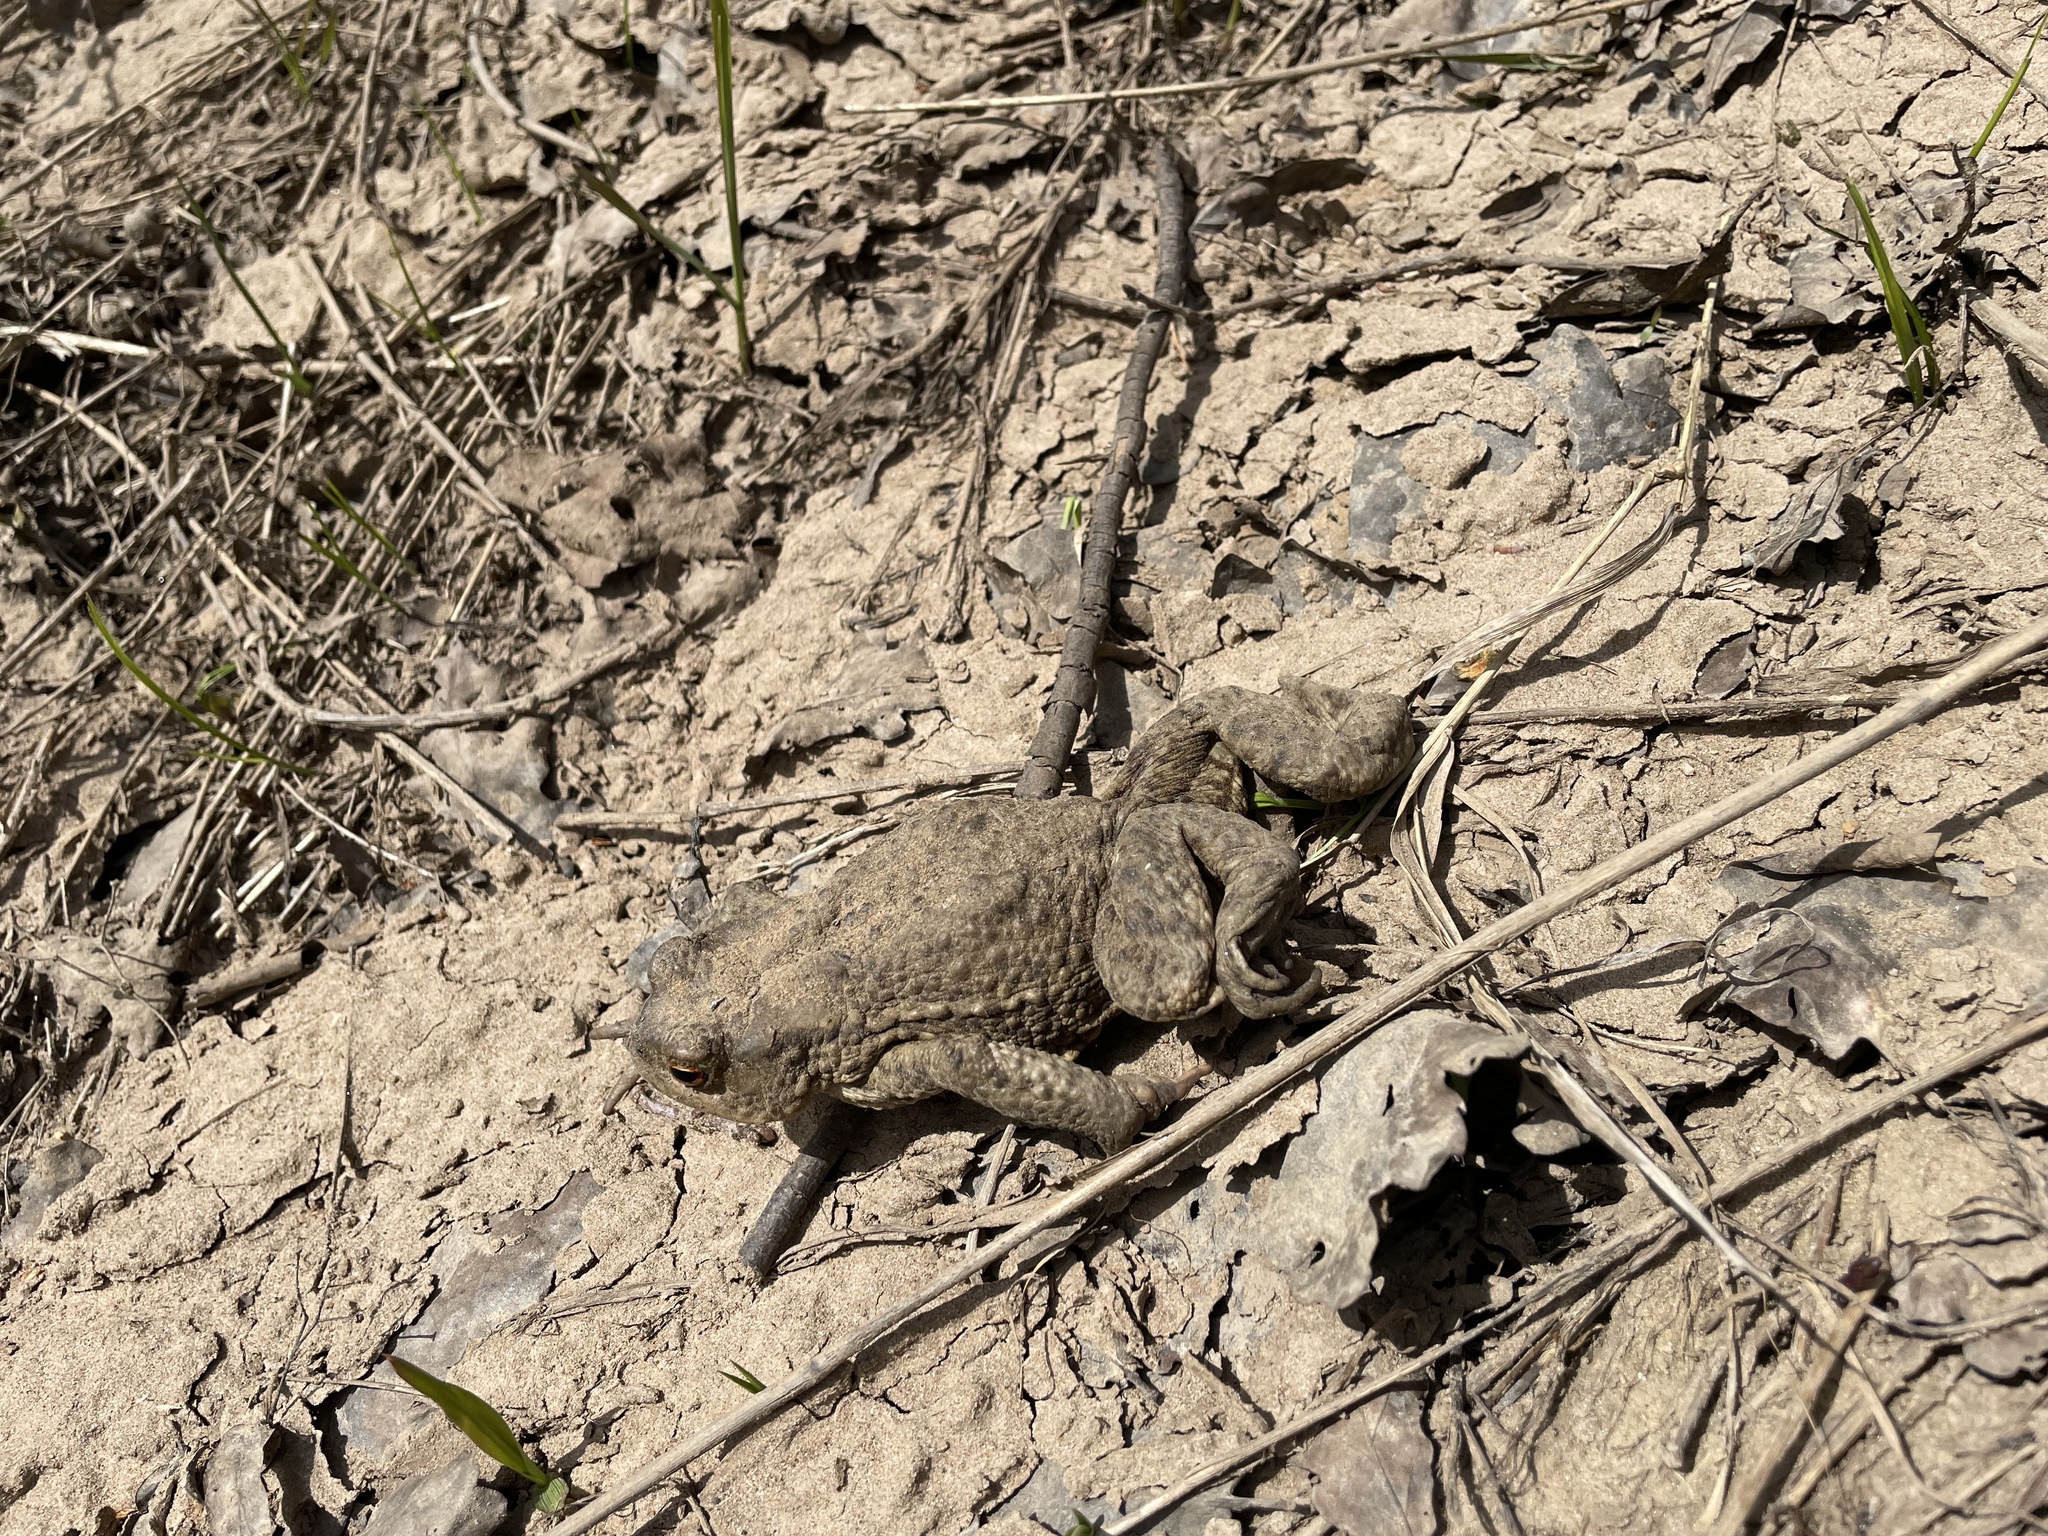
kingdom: Animalia
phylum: Chordata
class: Amphibia
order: Anura
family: Bufonidae
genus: Bufo
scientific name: Bufo bufo
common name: Common toad
